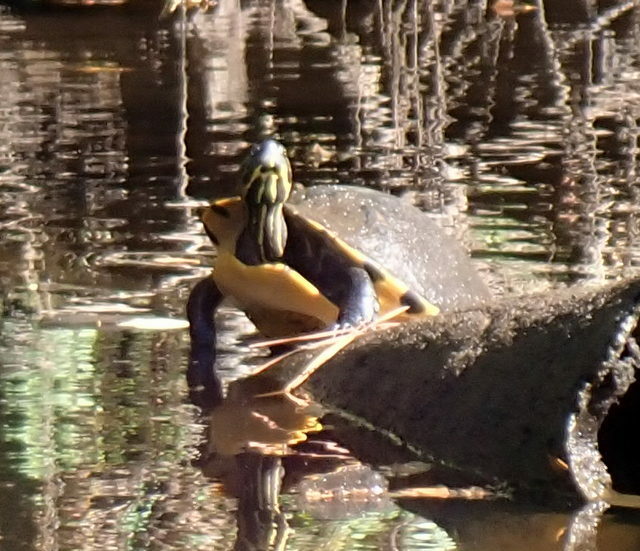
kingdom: Animalia
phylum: Chordata
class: Testudines
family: Emydidae
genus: Pseudemys
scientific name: Pseudemys concinna
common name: Eastern river cooter
